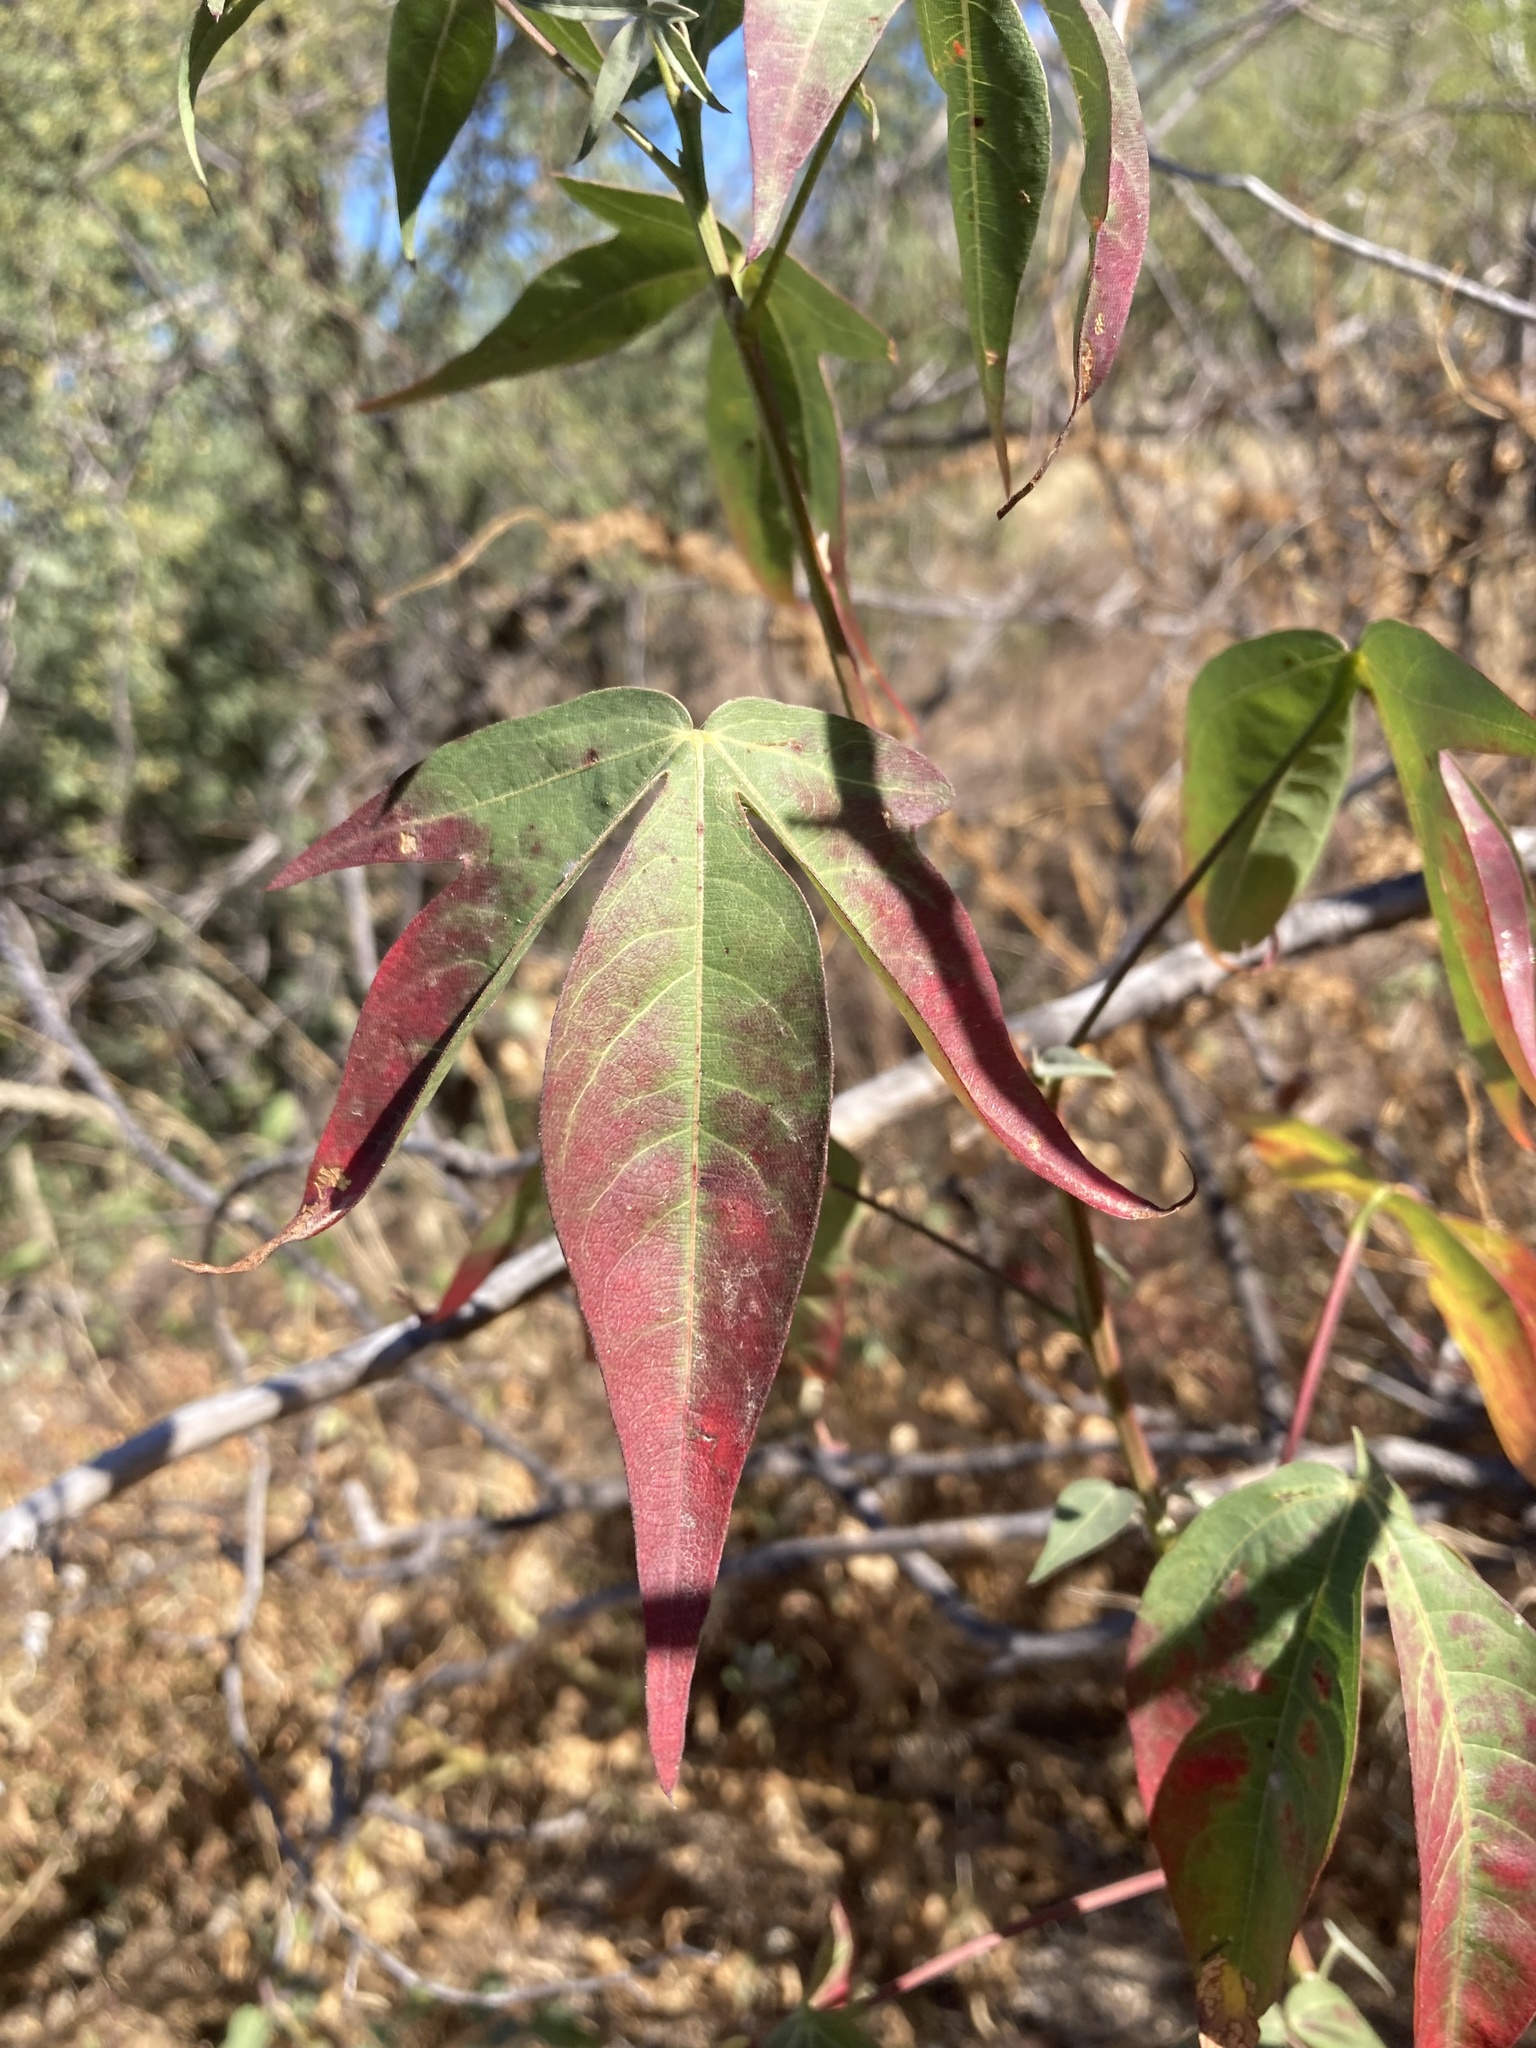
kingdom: Plantae
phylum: Tracheophyta
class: Magnoliopsida
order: Malvales
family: Malvaceae
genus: Gossypium
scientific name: Gossypium thurberi
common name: Desert cotton
